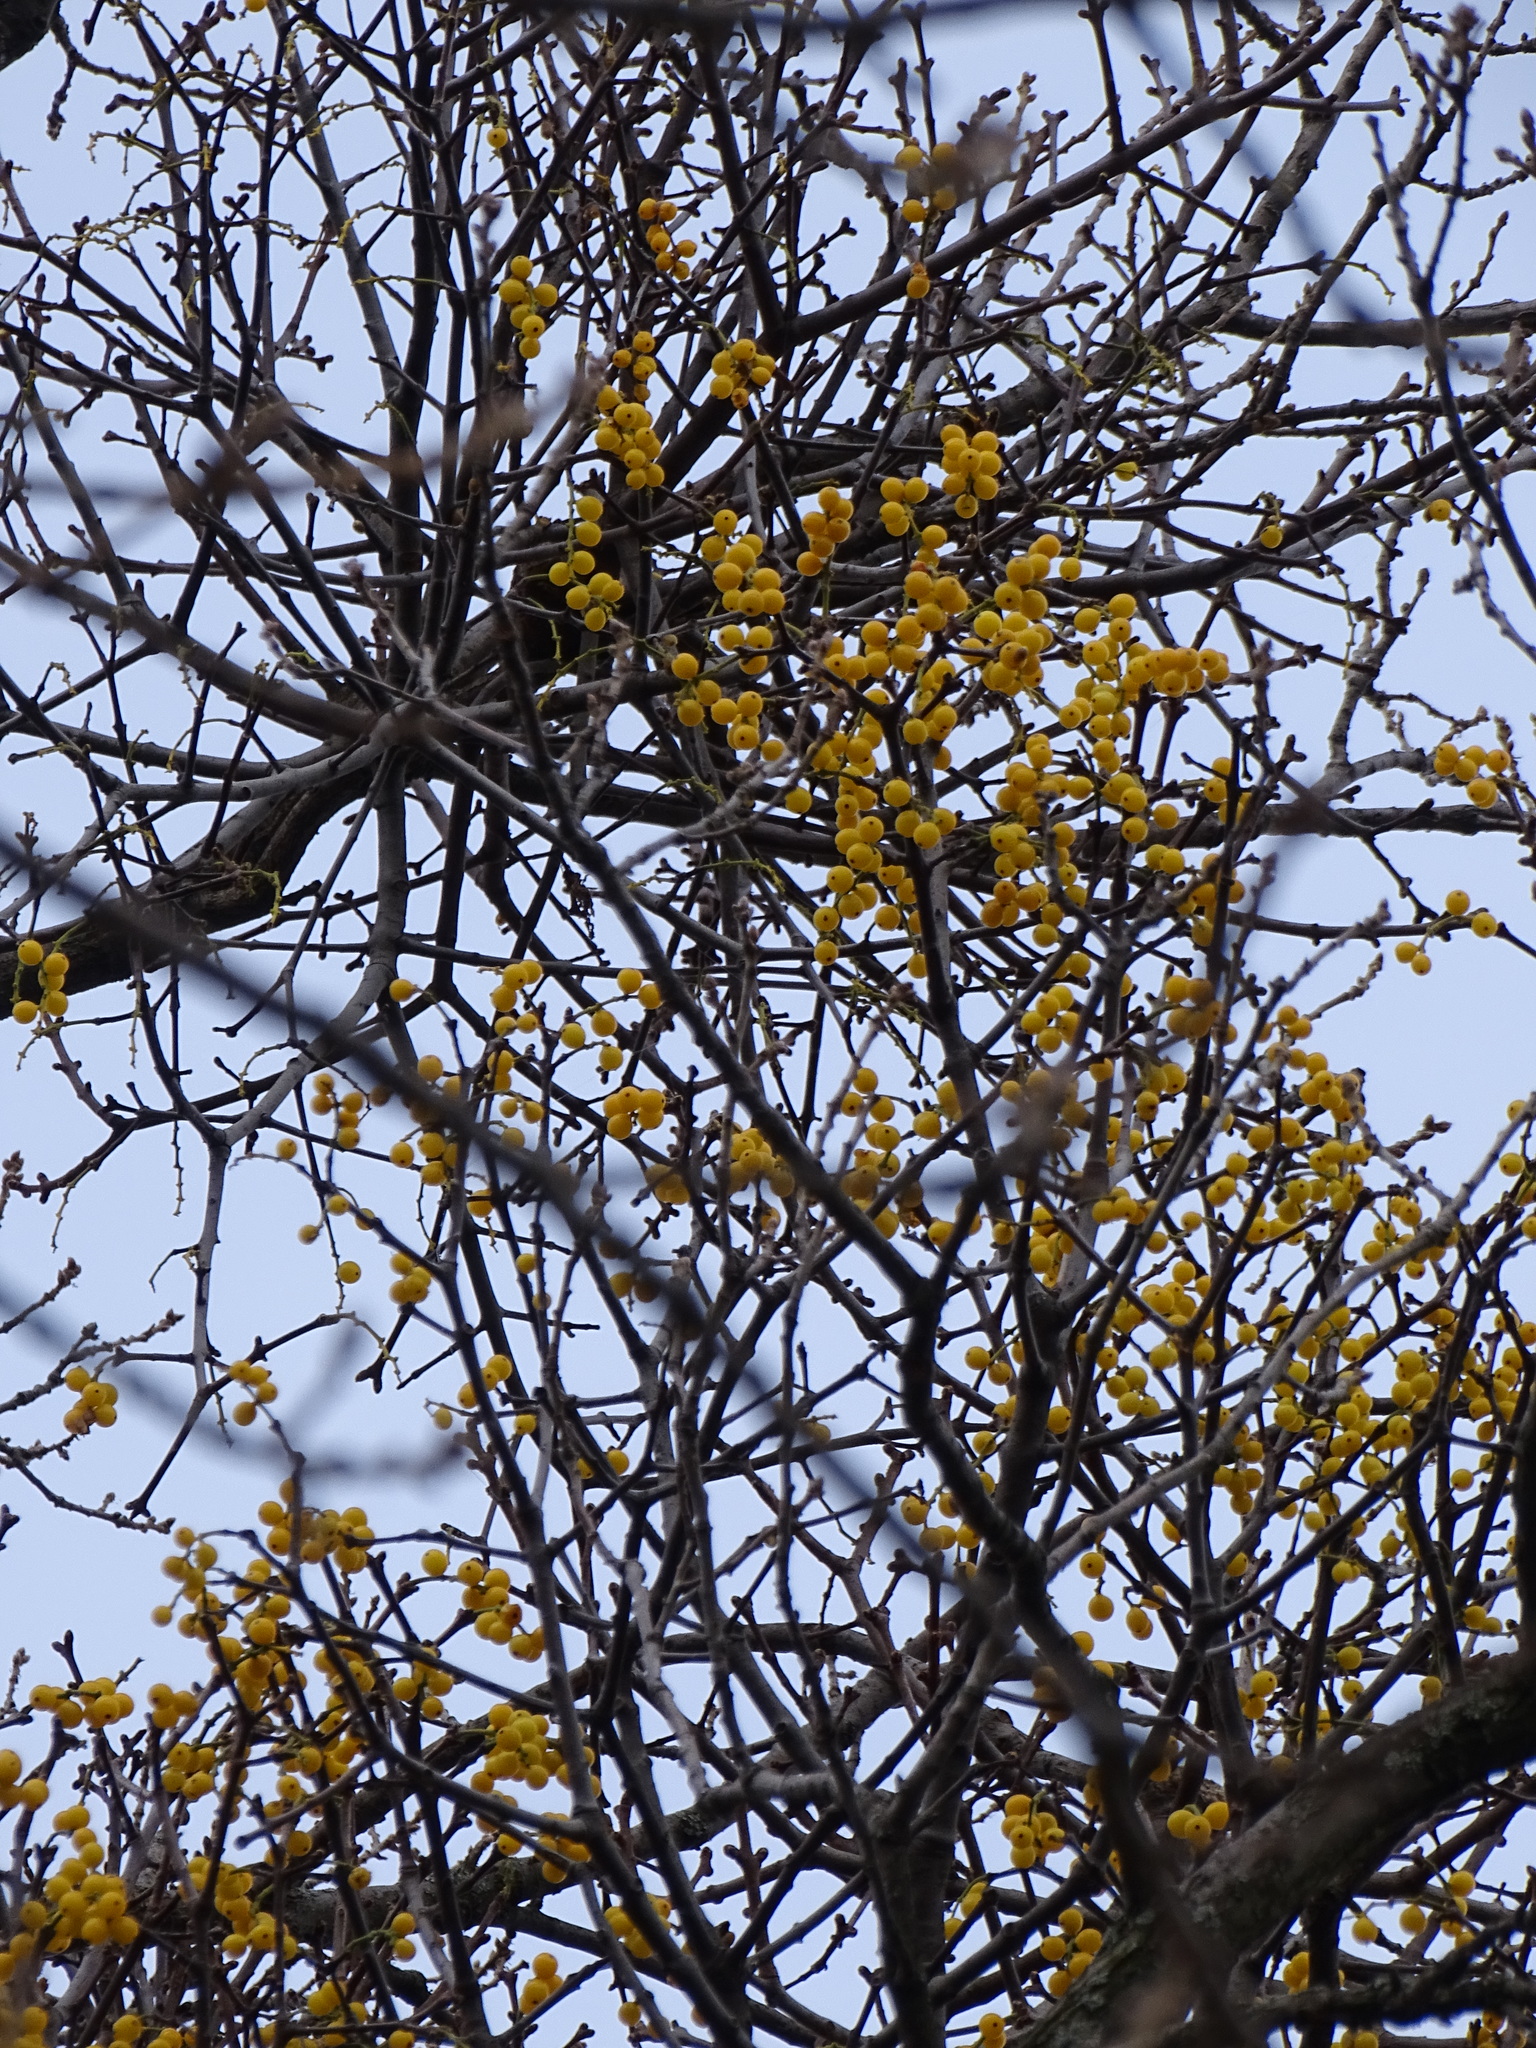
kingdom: Plantae
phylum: Tracheophyta
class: Magnoliopsida
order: Santalales
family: Loranthaceae
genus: Loranthus
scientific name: Loranthus europaeus
